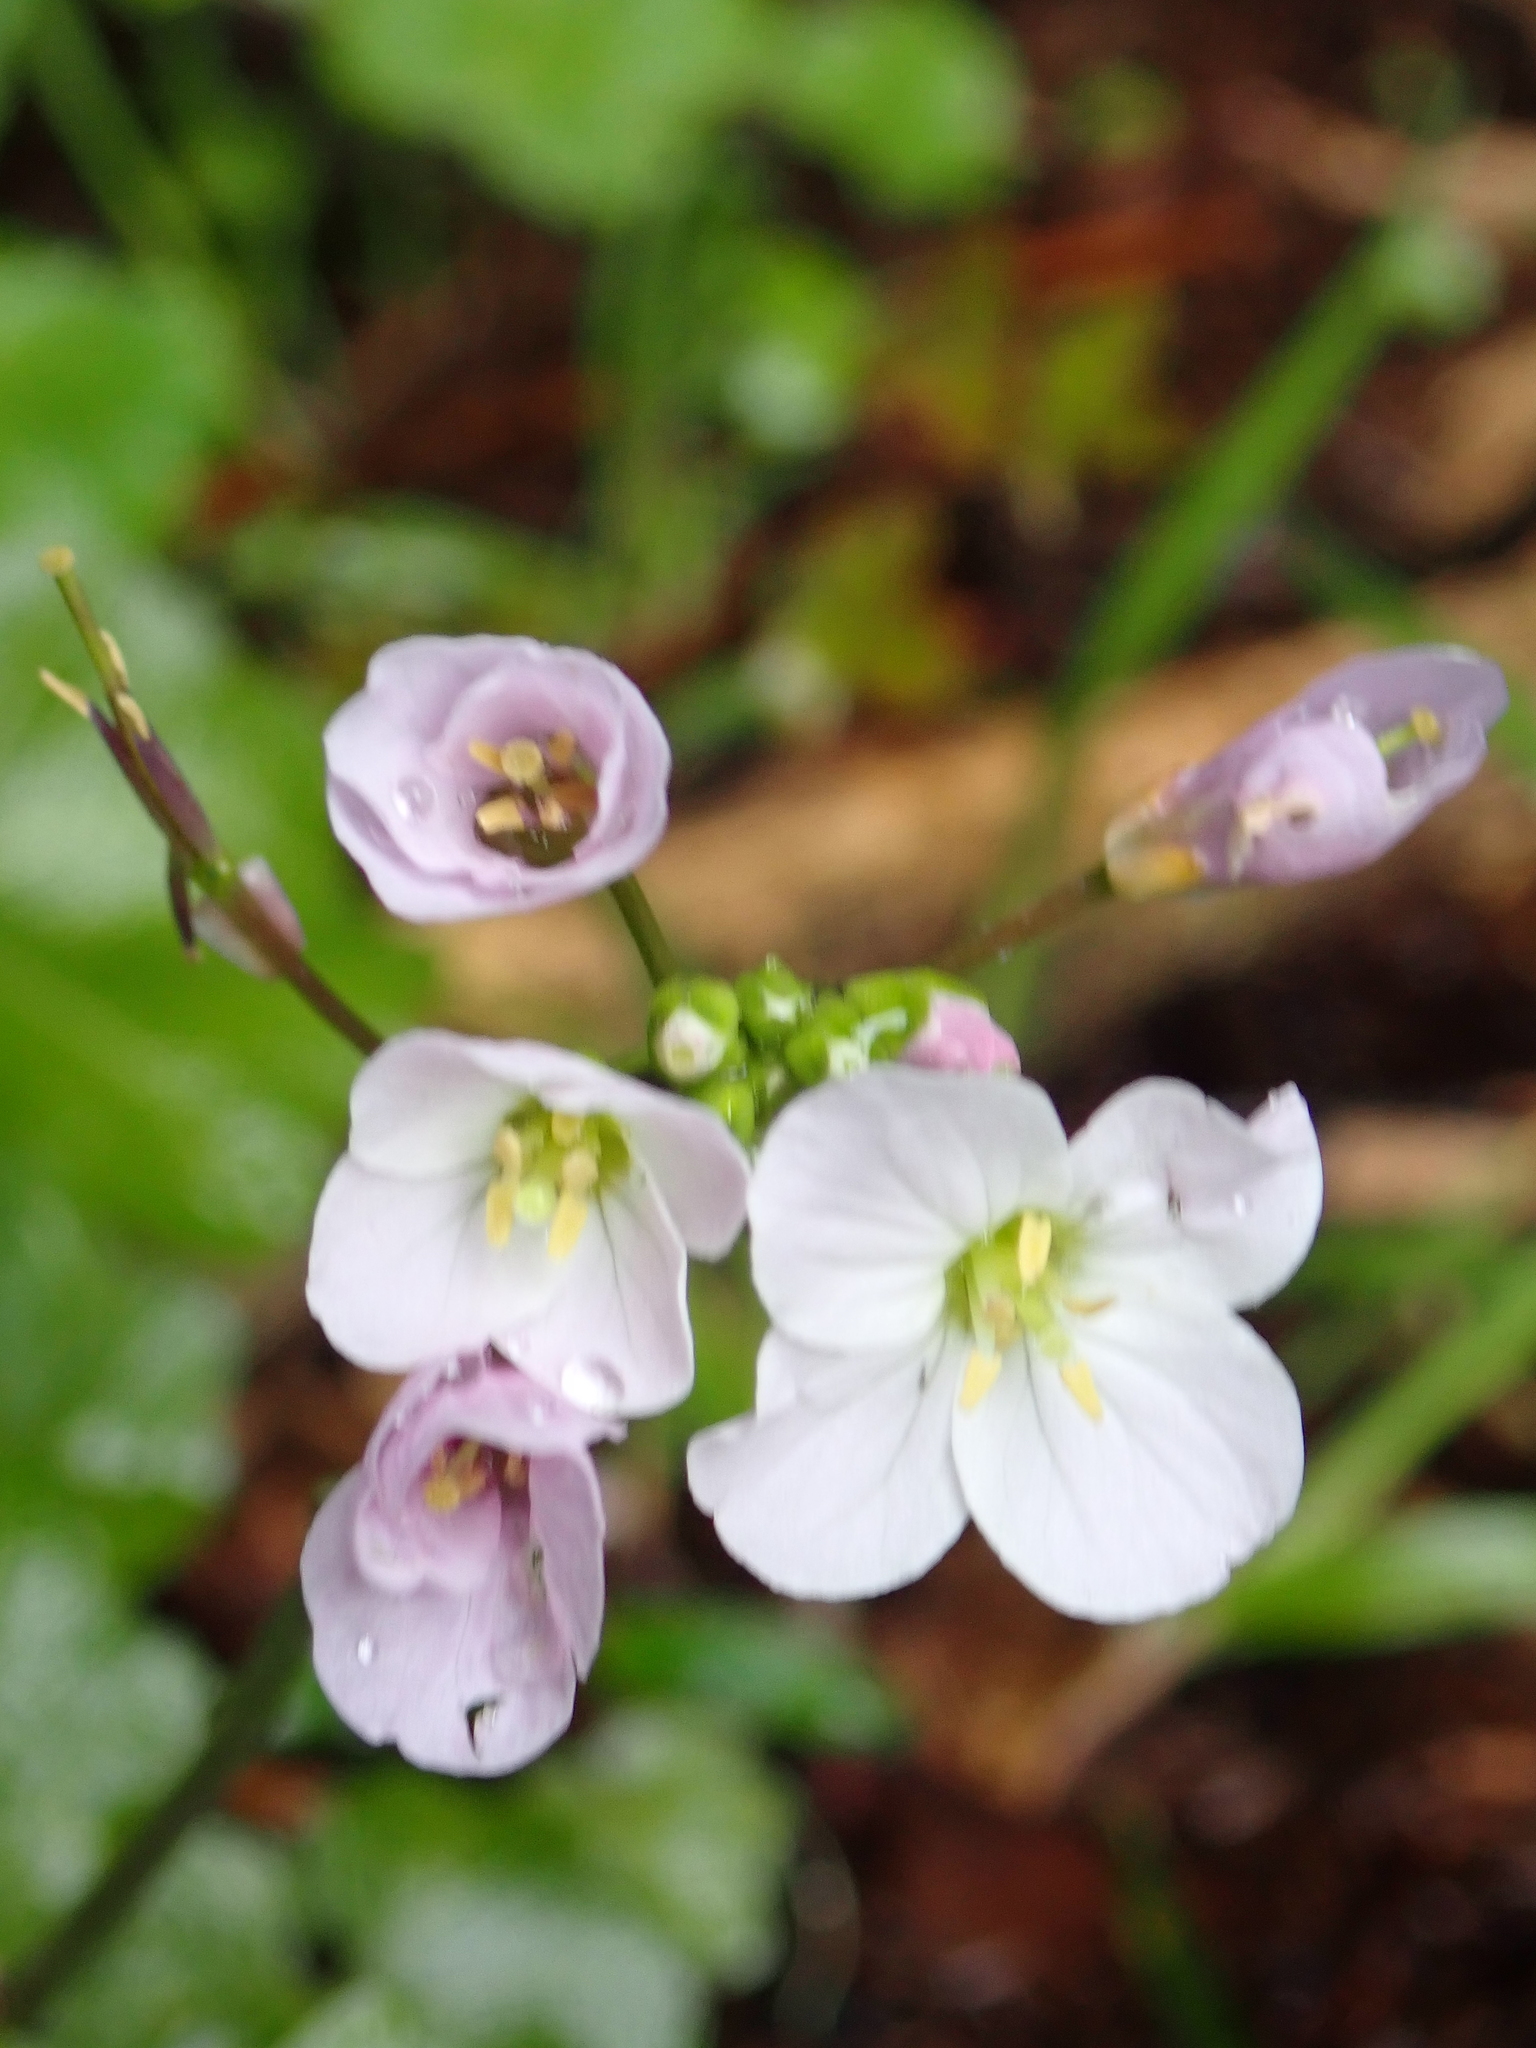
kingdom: Plantae
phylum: Tracheophyta
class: Magnoliopsida
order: Brassicales
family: Brassicaceae
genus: Cardamine
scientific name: Cardamine californica
